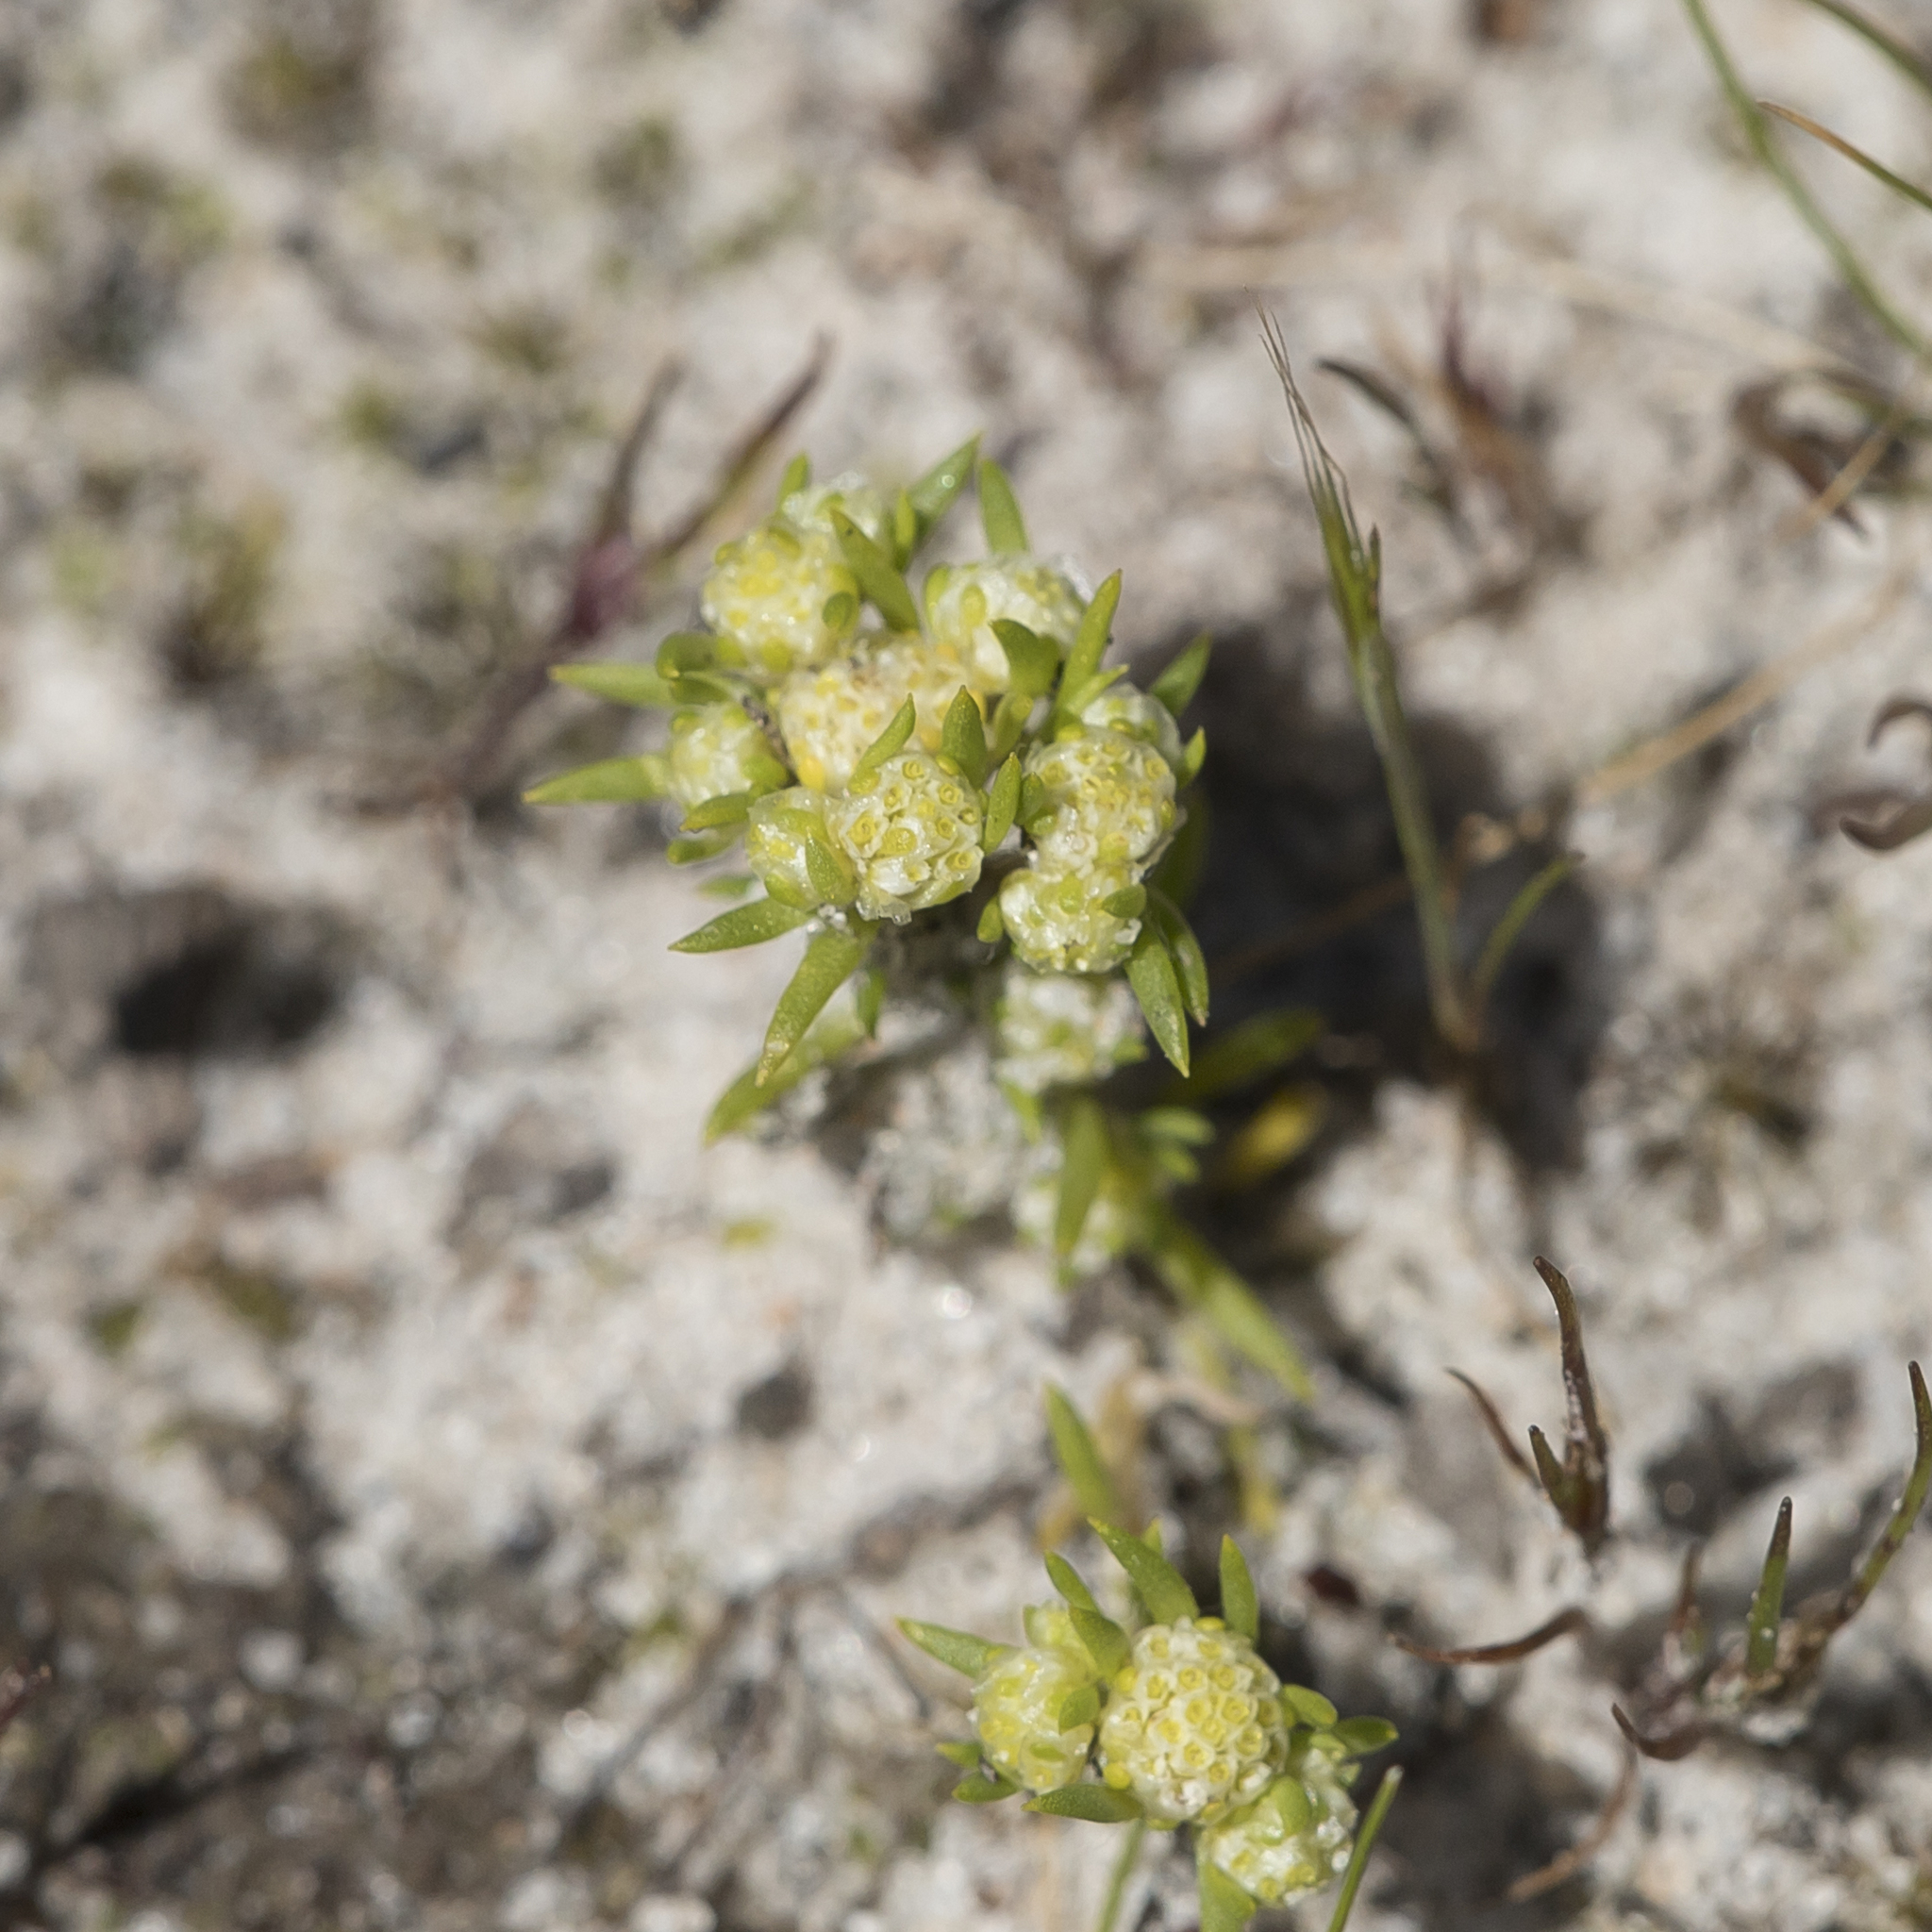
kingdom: Plantae
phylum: Tracheophyta
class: Magnoliopsida
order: Asterales
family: Asteraceae
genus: Siloxerus
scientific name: Siloxerus multiflorus
